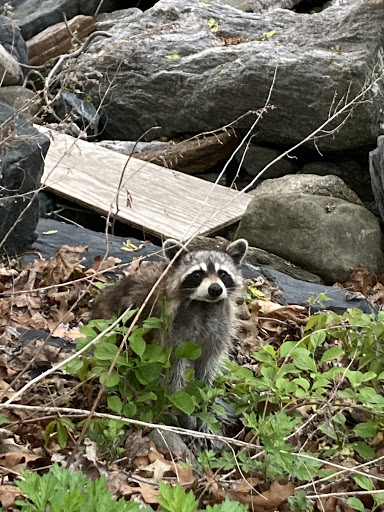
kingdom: Animalia
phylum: Chordata
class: Mammalia
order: Carnivora
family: Procyonidae
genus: Procyon
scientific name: Procyon lotor
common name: Raccoon
